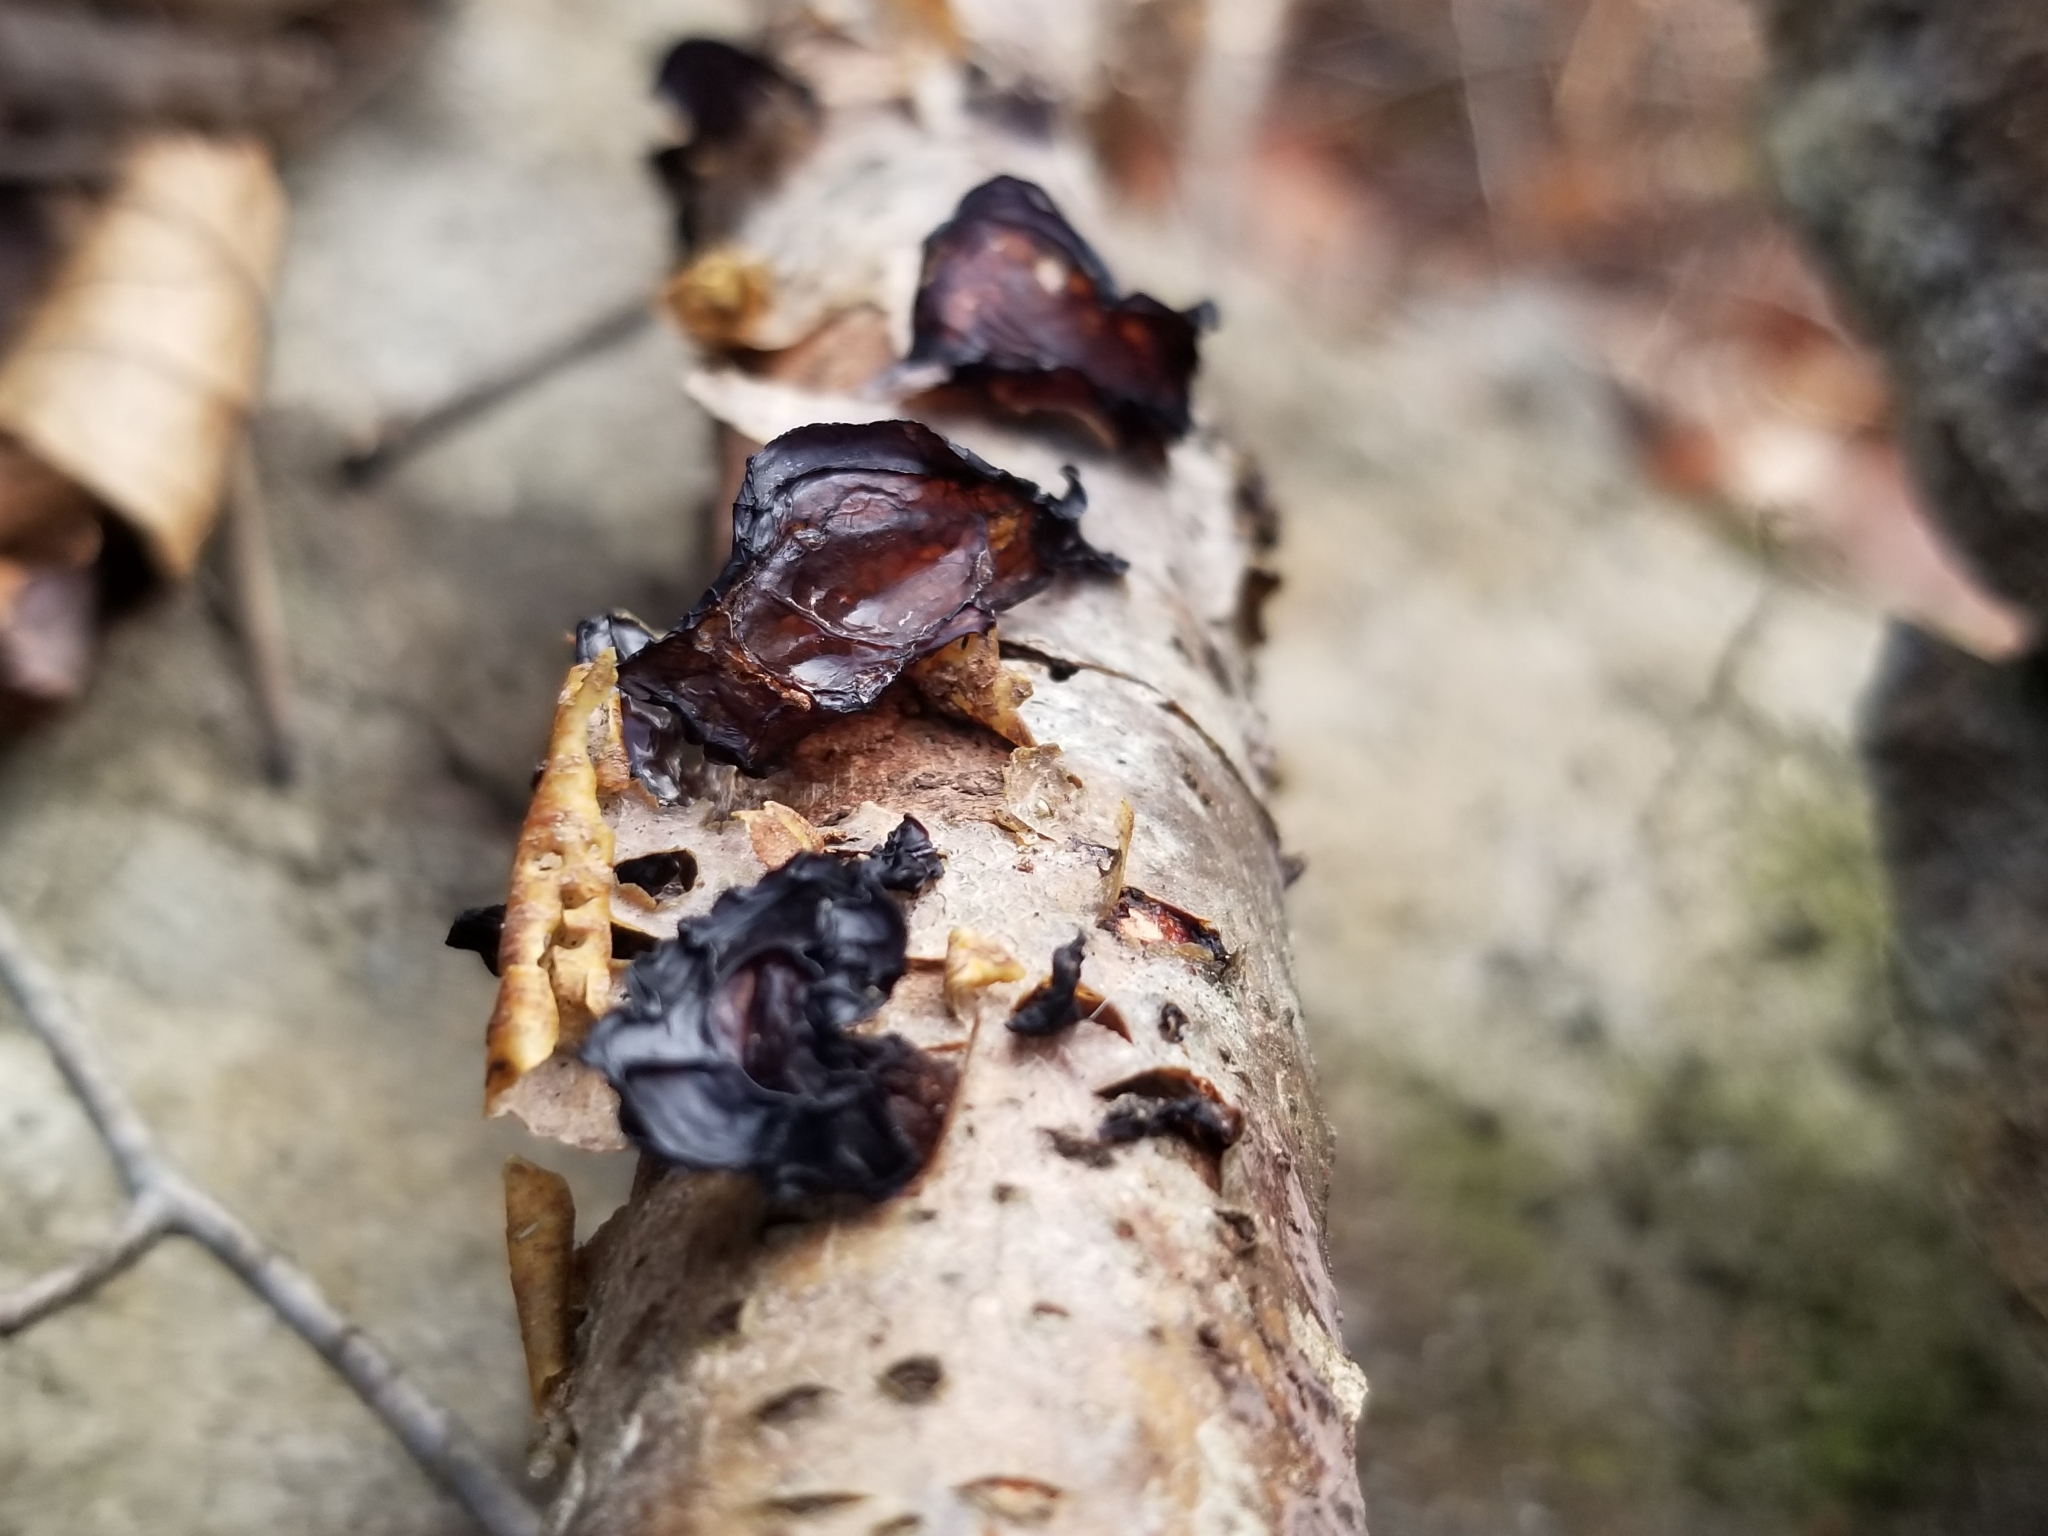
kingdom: Fungi
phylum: Basidiomycota
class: Agaricomycetes
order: Auriculariales
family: Auriculariaceae
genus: Exidia
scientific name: Exidia
